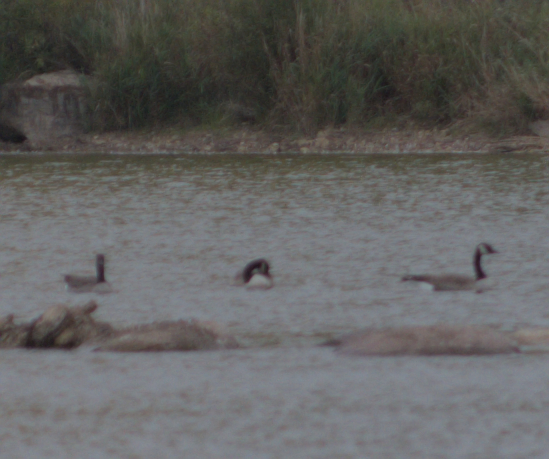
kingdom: Animalia
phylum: Chordata
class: Aves
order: Anseriformes
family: Anatidae
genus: Branta
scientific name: Branta canadensis
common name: Canada goose
